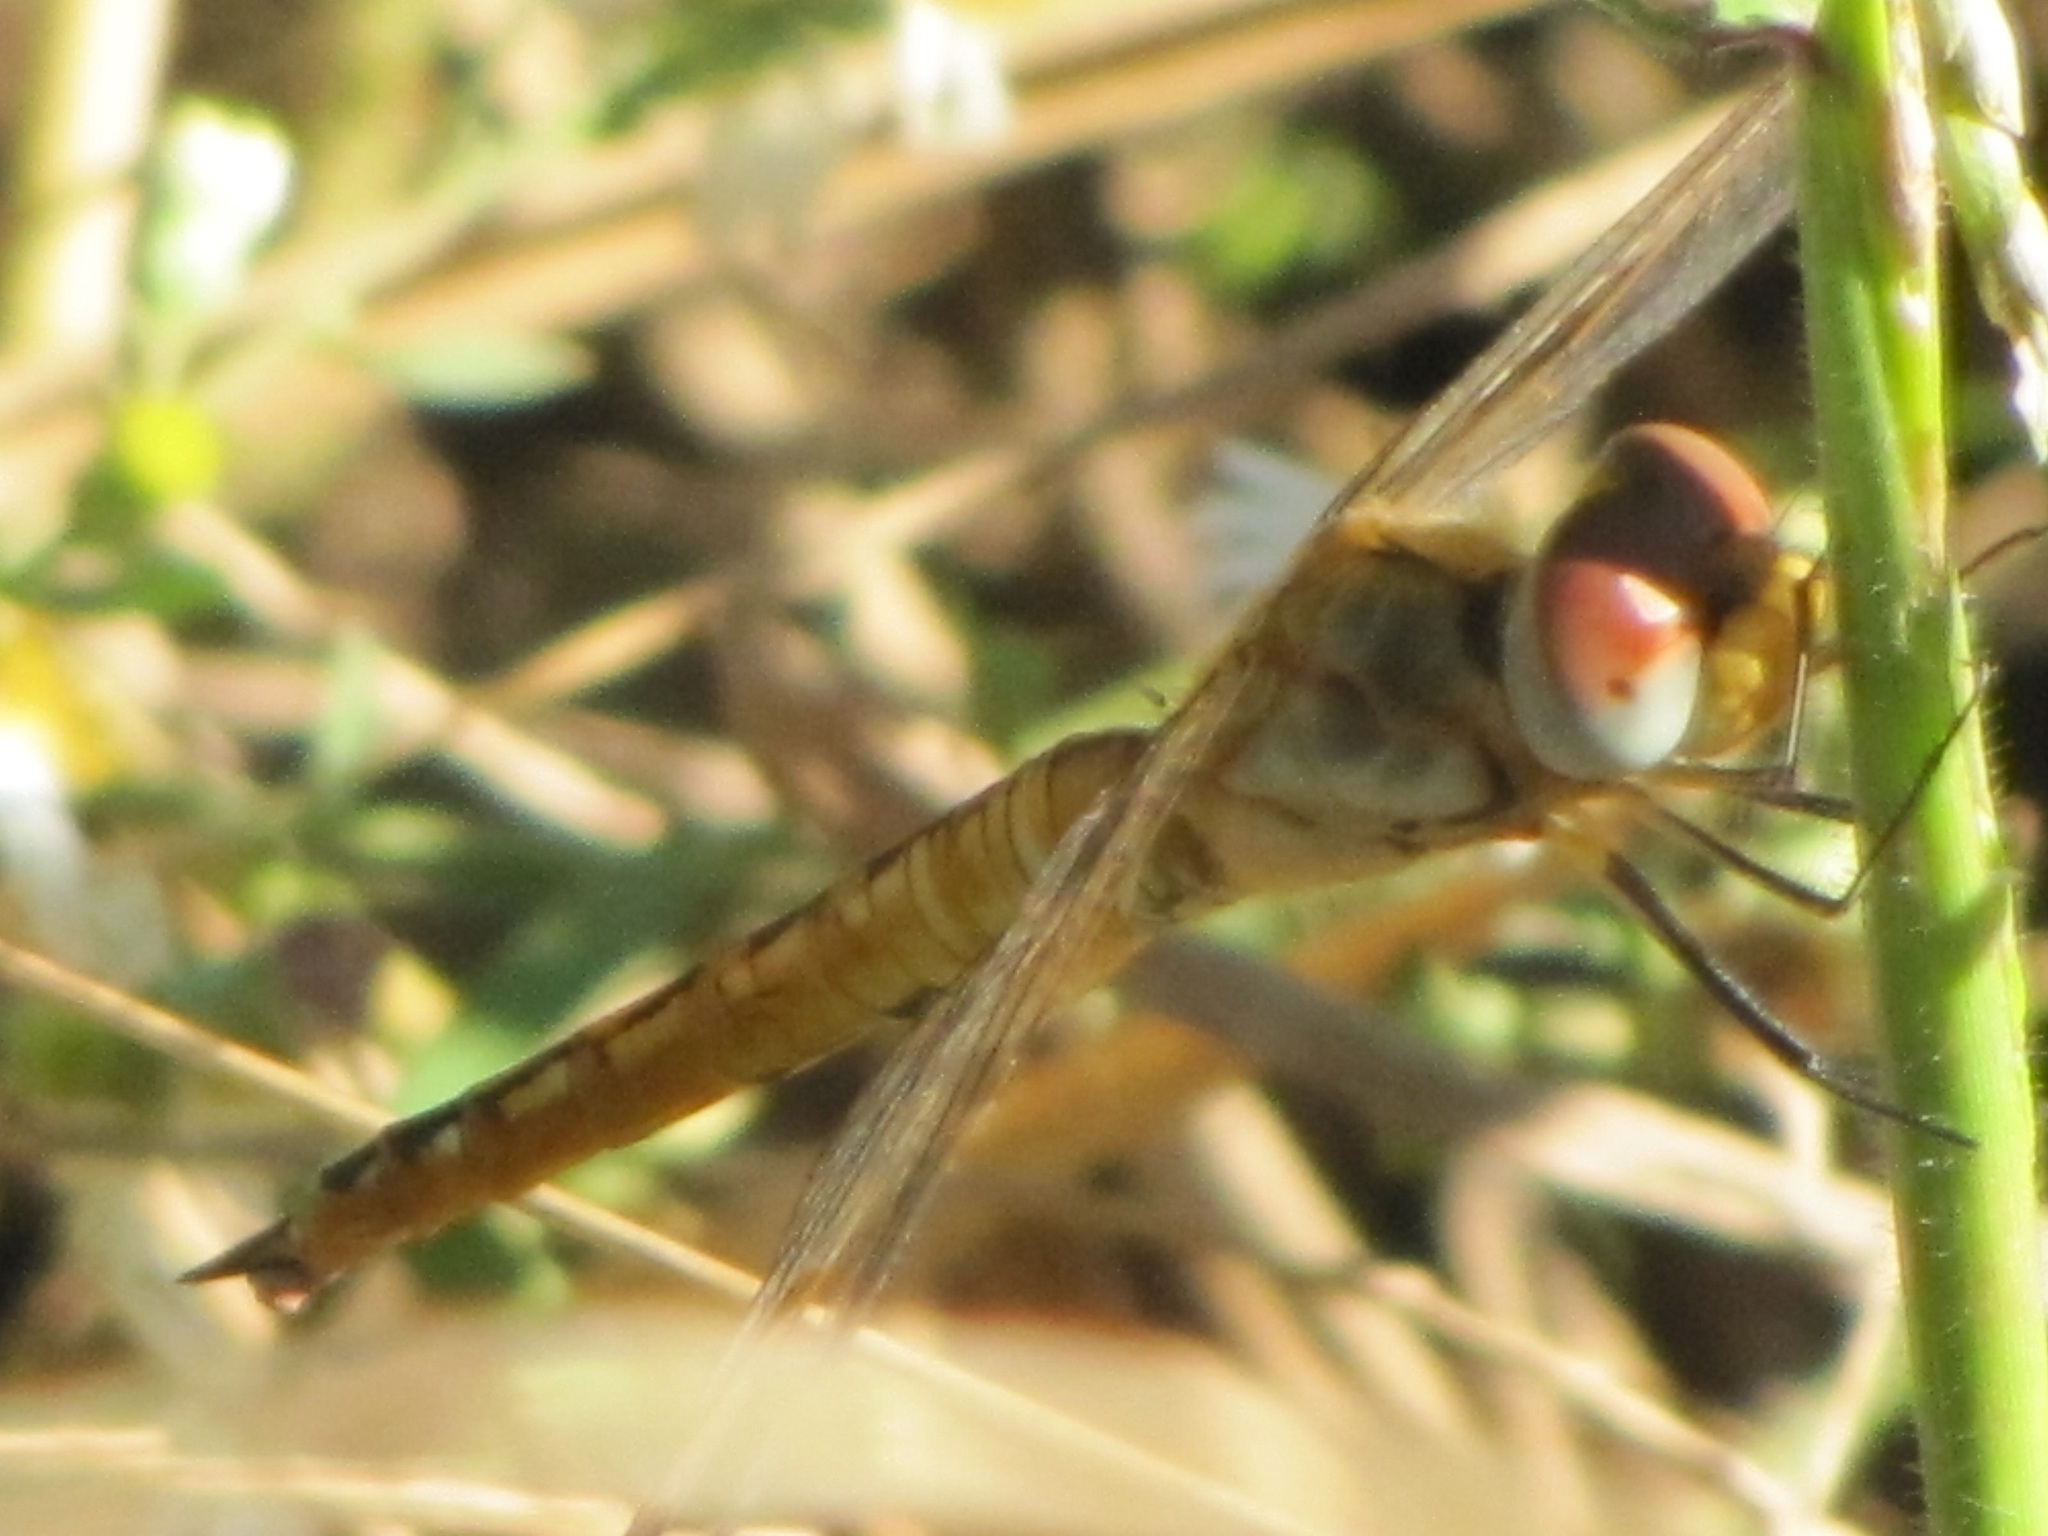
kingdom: Animalia
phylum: Arthropoda
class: Insecta
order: Odonata
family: Libellulidae
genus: Pantala
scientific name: Pantala flavescens
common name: Wandering glider
